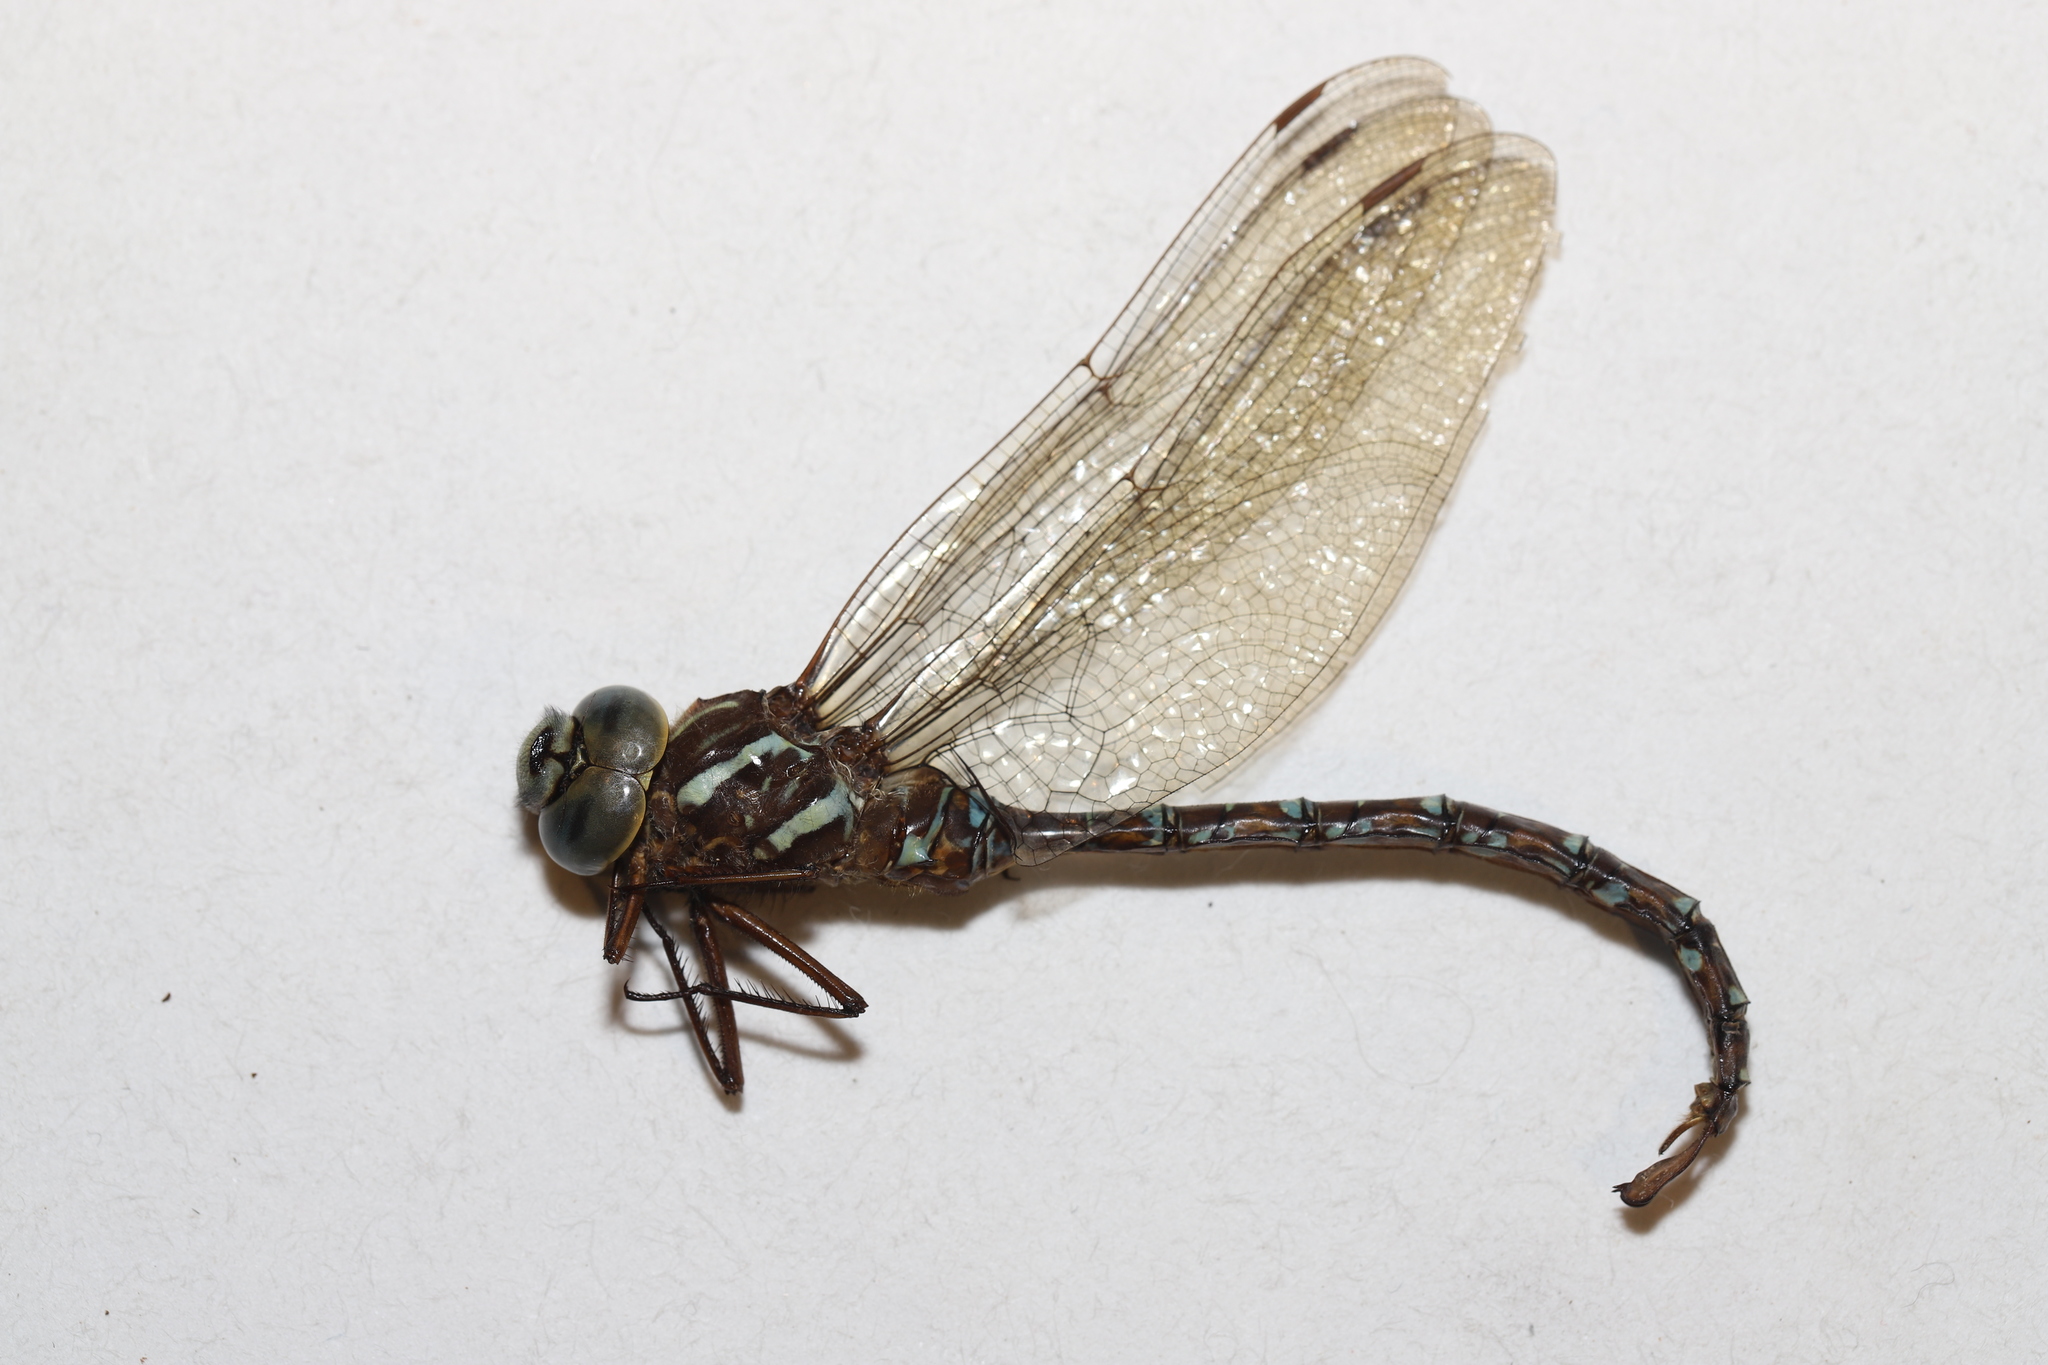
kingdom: Animalia
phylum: Arthropoda
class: Insecta
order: Odonata
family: Aeshnidae
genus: Aeshna
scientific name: Aeshna umbrosa
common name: Shadow darner
